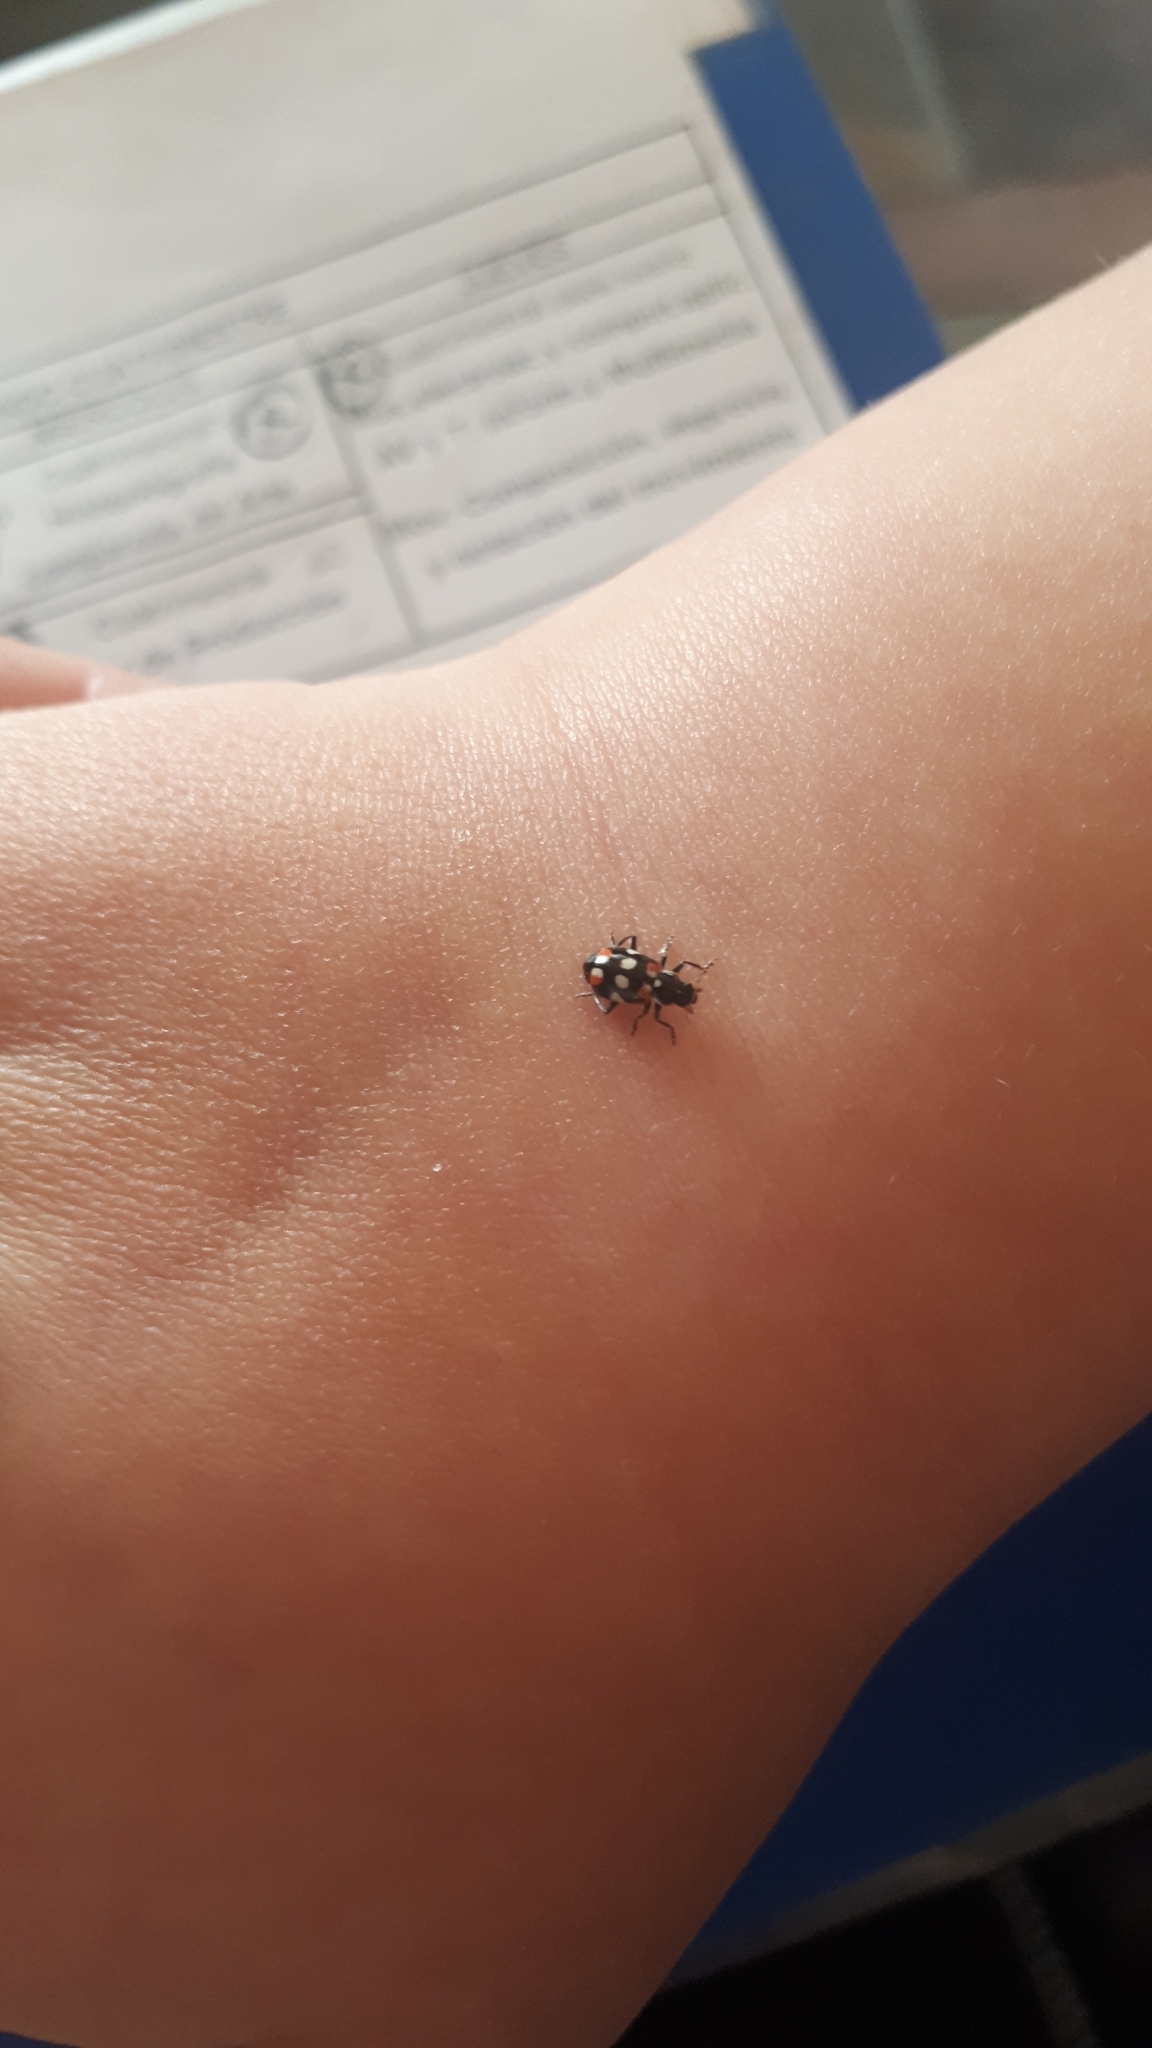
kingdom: Animalia
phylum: Arthropoda
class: Insecta
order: Coleoptera
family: Coccinellidae
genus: Eriopis
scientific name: Eriopis connexa
